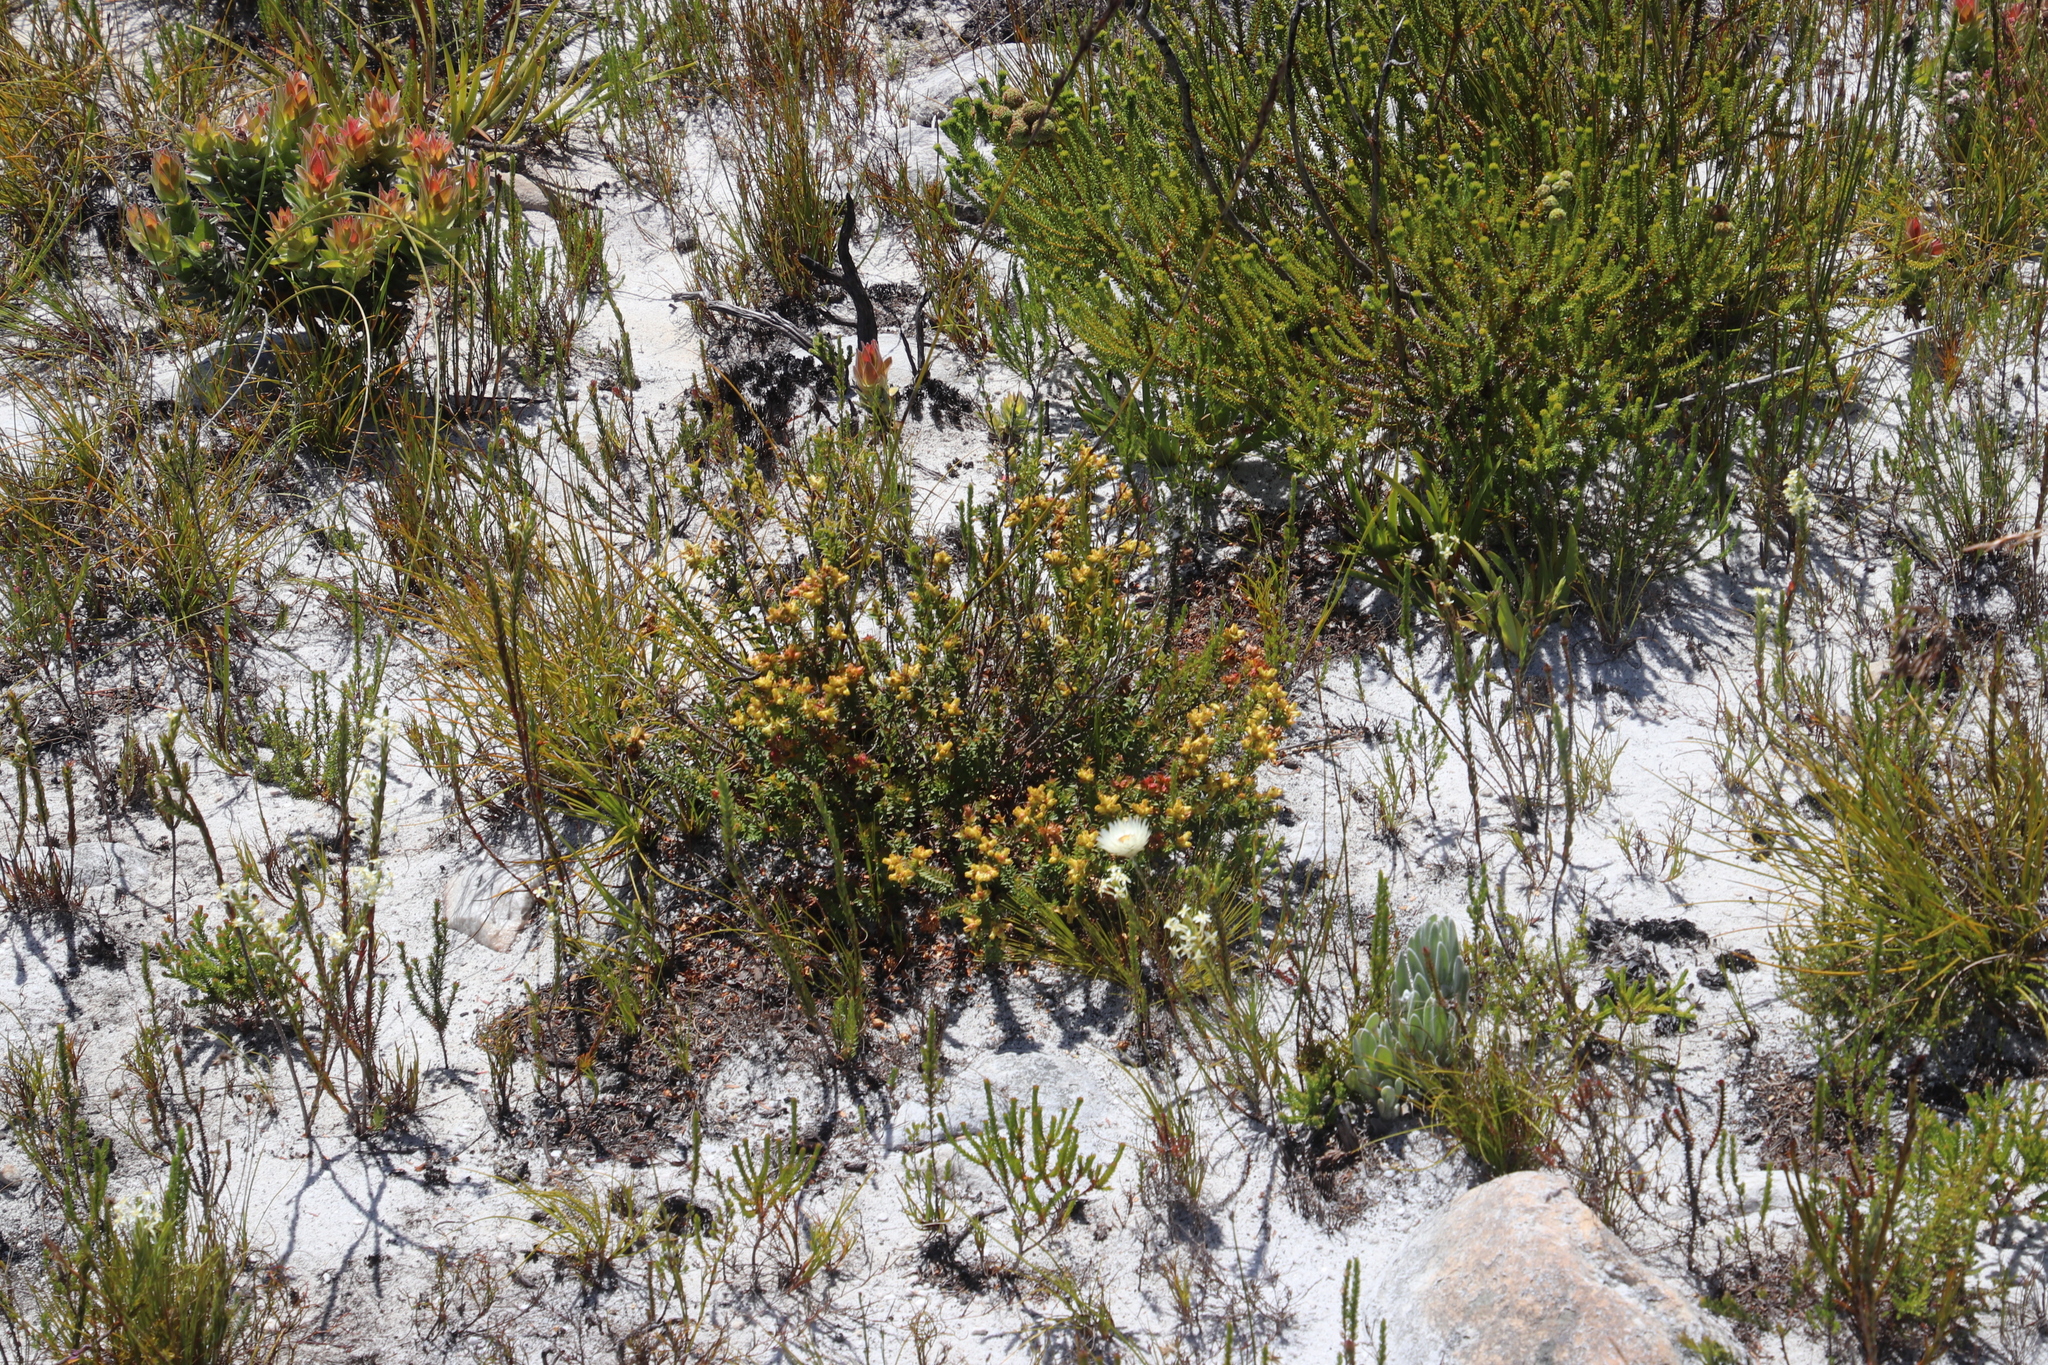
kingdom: Plantae
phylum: Tracheophyta
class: Magnoliopsida
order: Myrtales
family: Penaeaceae
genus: Penaea
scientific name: Penaea mucronata
